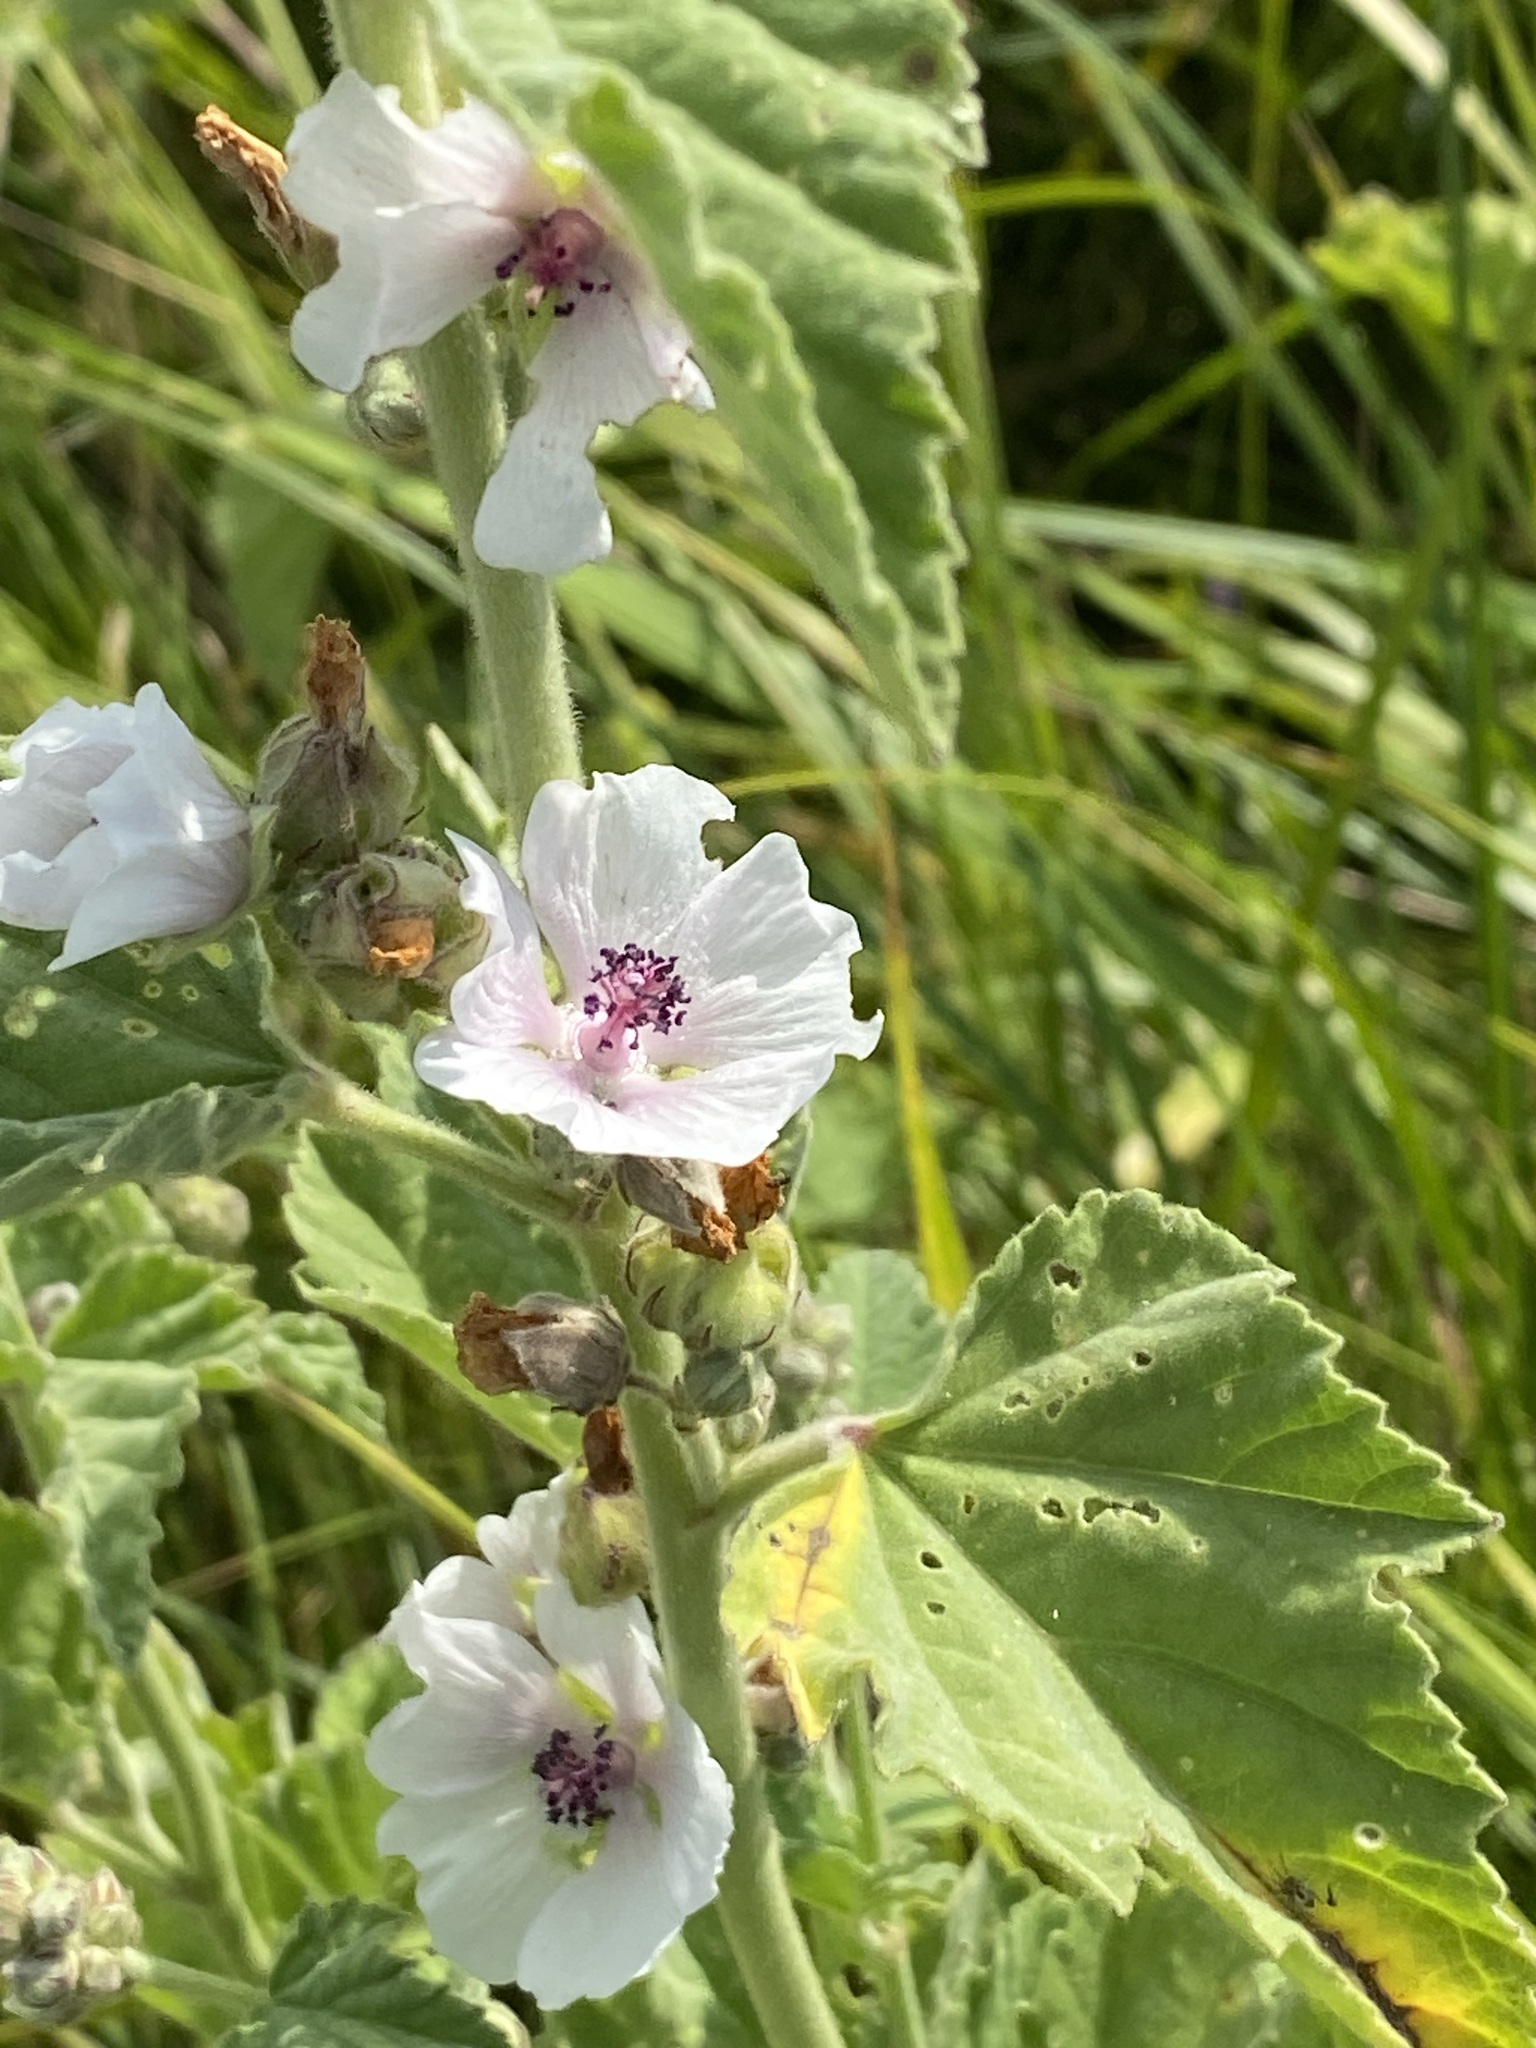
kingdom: Plantae
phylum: Tracheophyta
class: Magnoliopsida
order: Malvales
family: Malvaceae
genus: Althaea
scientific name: Althaea officinalis
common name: Marsh-mallow
